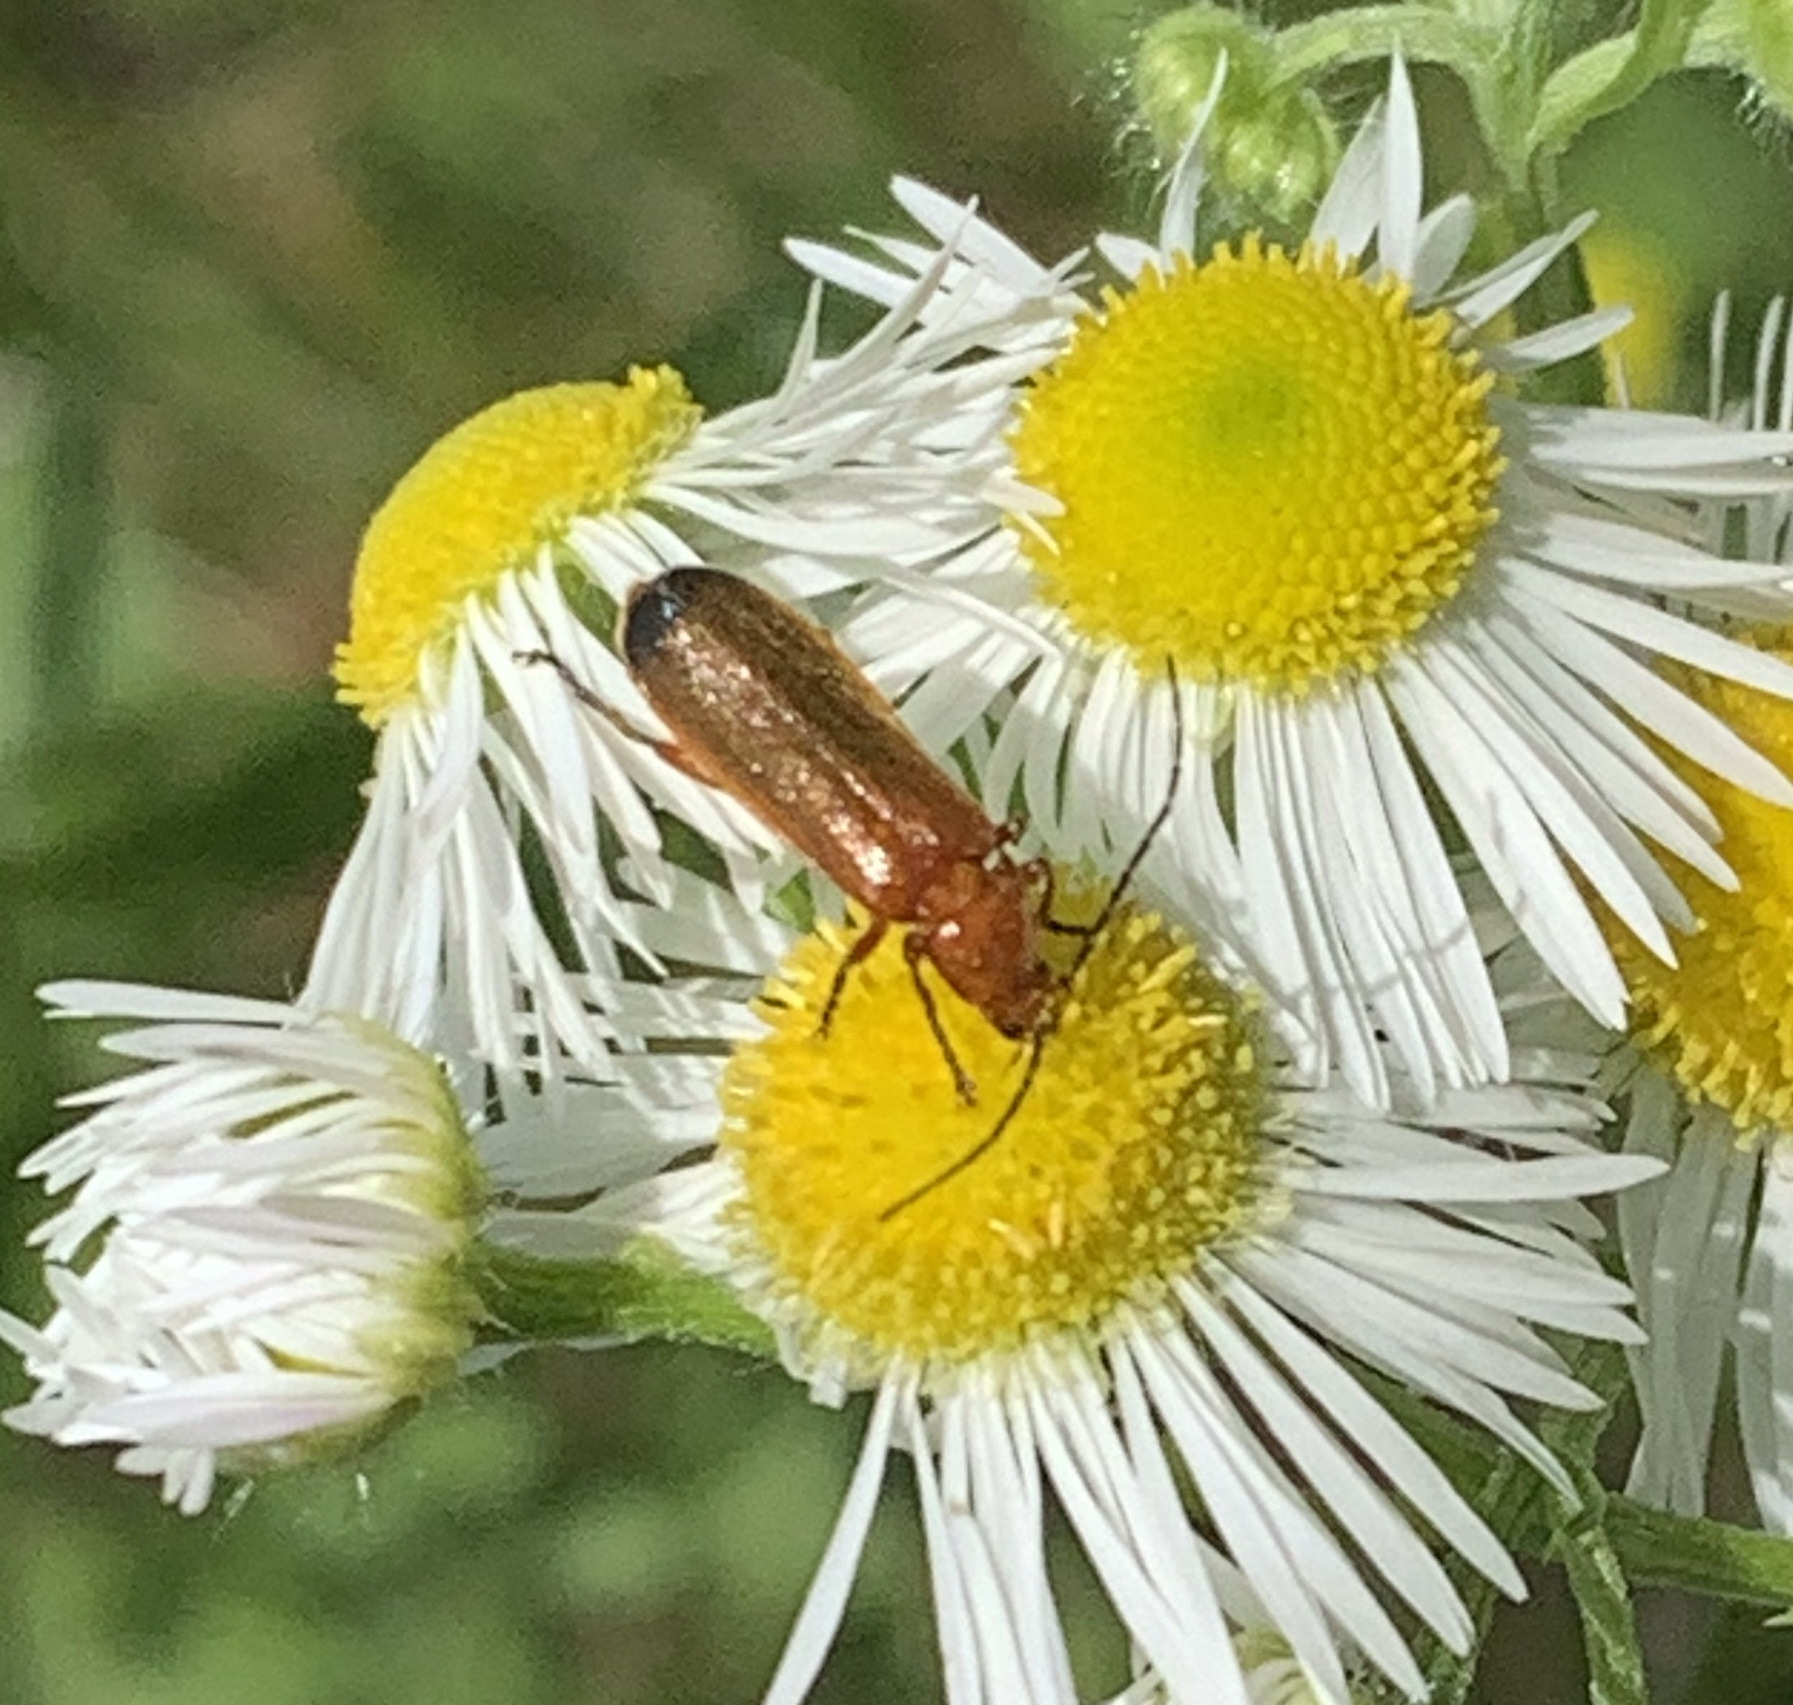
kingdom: Animalia
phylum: Arthropoda
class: Insecta
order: Coleoptera
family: Cantharidae
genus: Rhagonycha
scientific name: Rhagonycha fulva
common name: Common red soldier beetle
